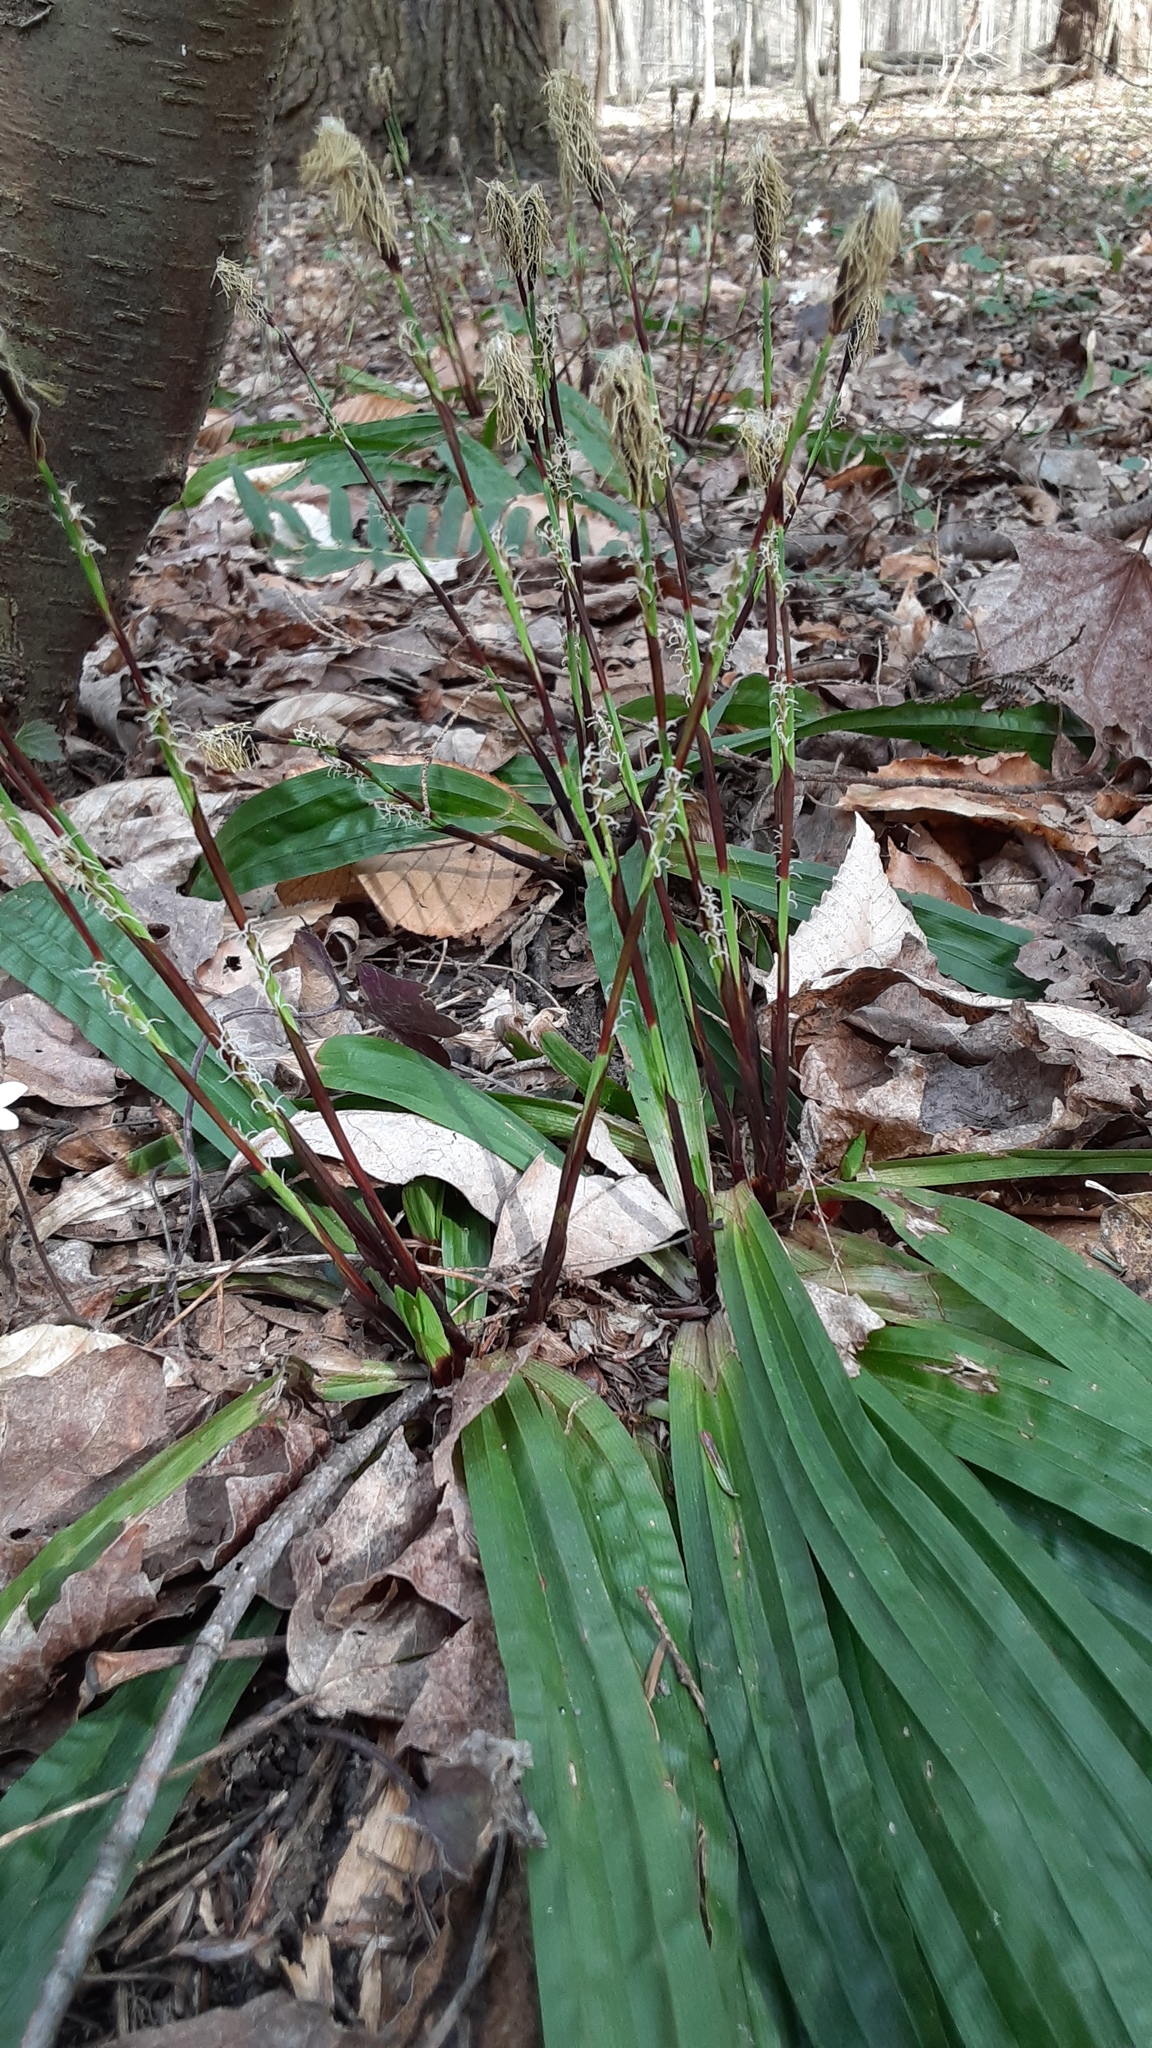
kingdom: Plantae
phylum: Tracheophyta
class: Liliopsida
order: Poales
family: Cyperaceae
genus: Carex
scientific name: Carex plantaginea
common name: Plantain-leaved sedge
